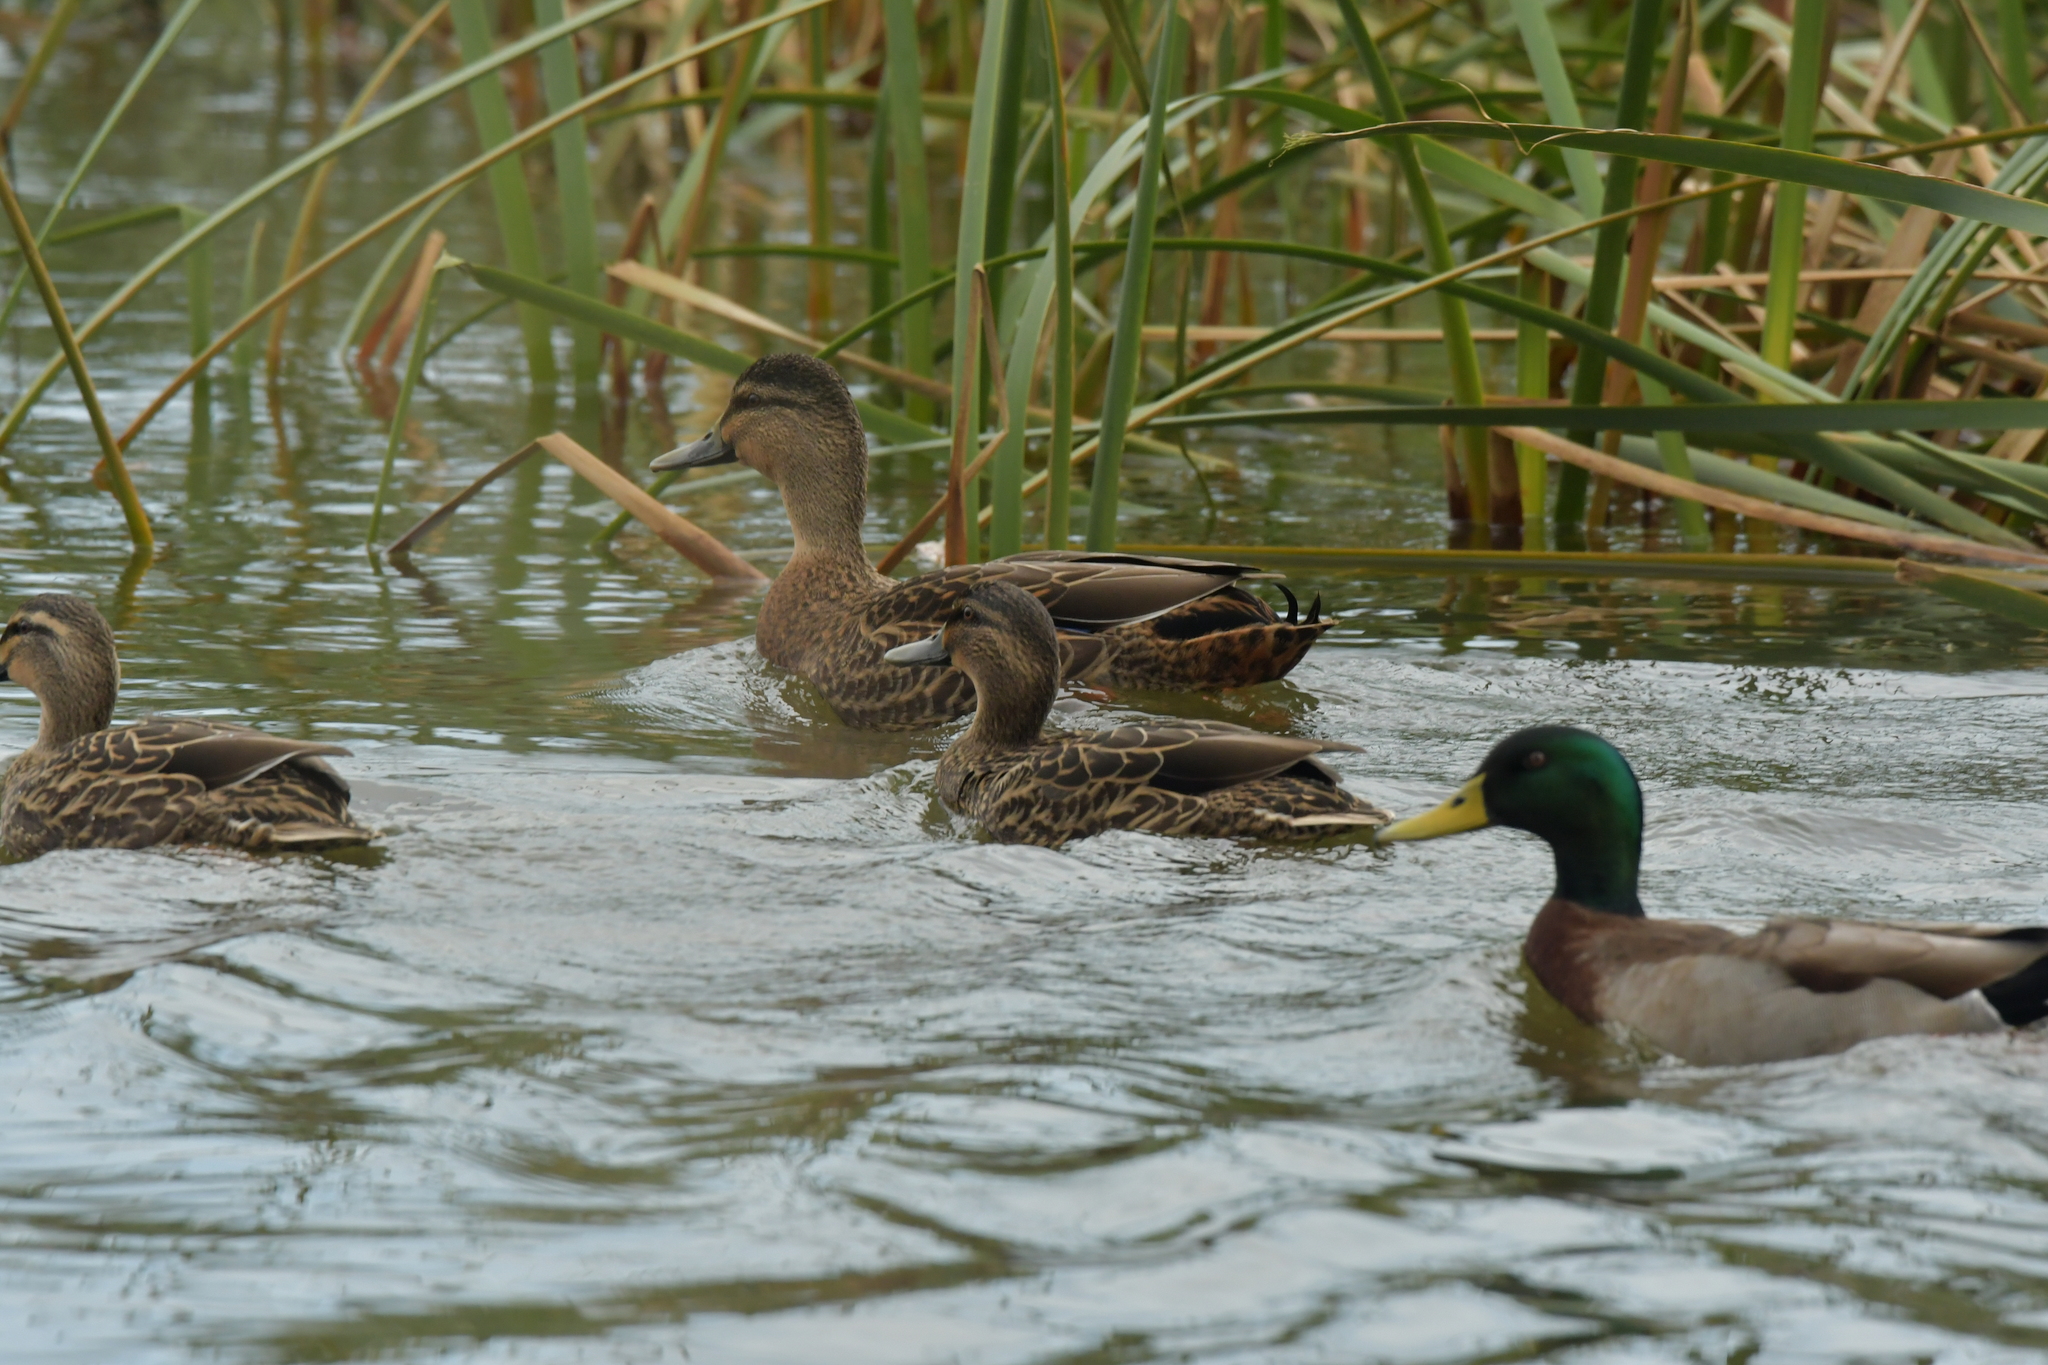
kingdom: Animalia
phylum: Chordata
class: Aves
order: Anseriformes
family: Anatidae
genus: Anas
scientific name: Anas
